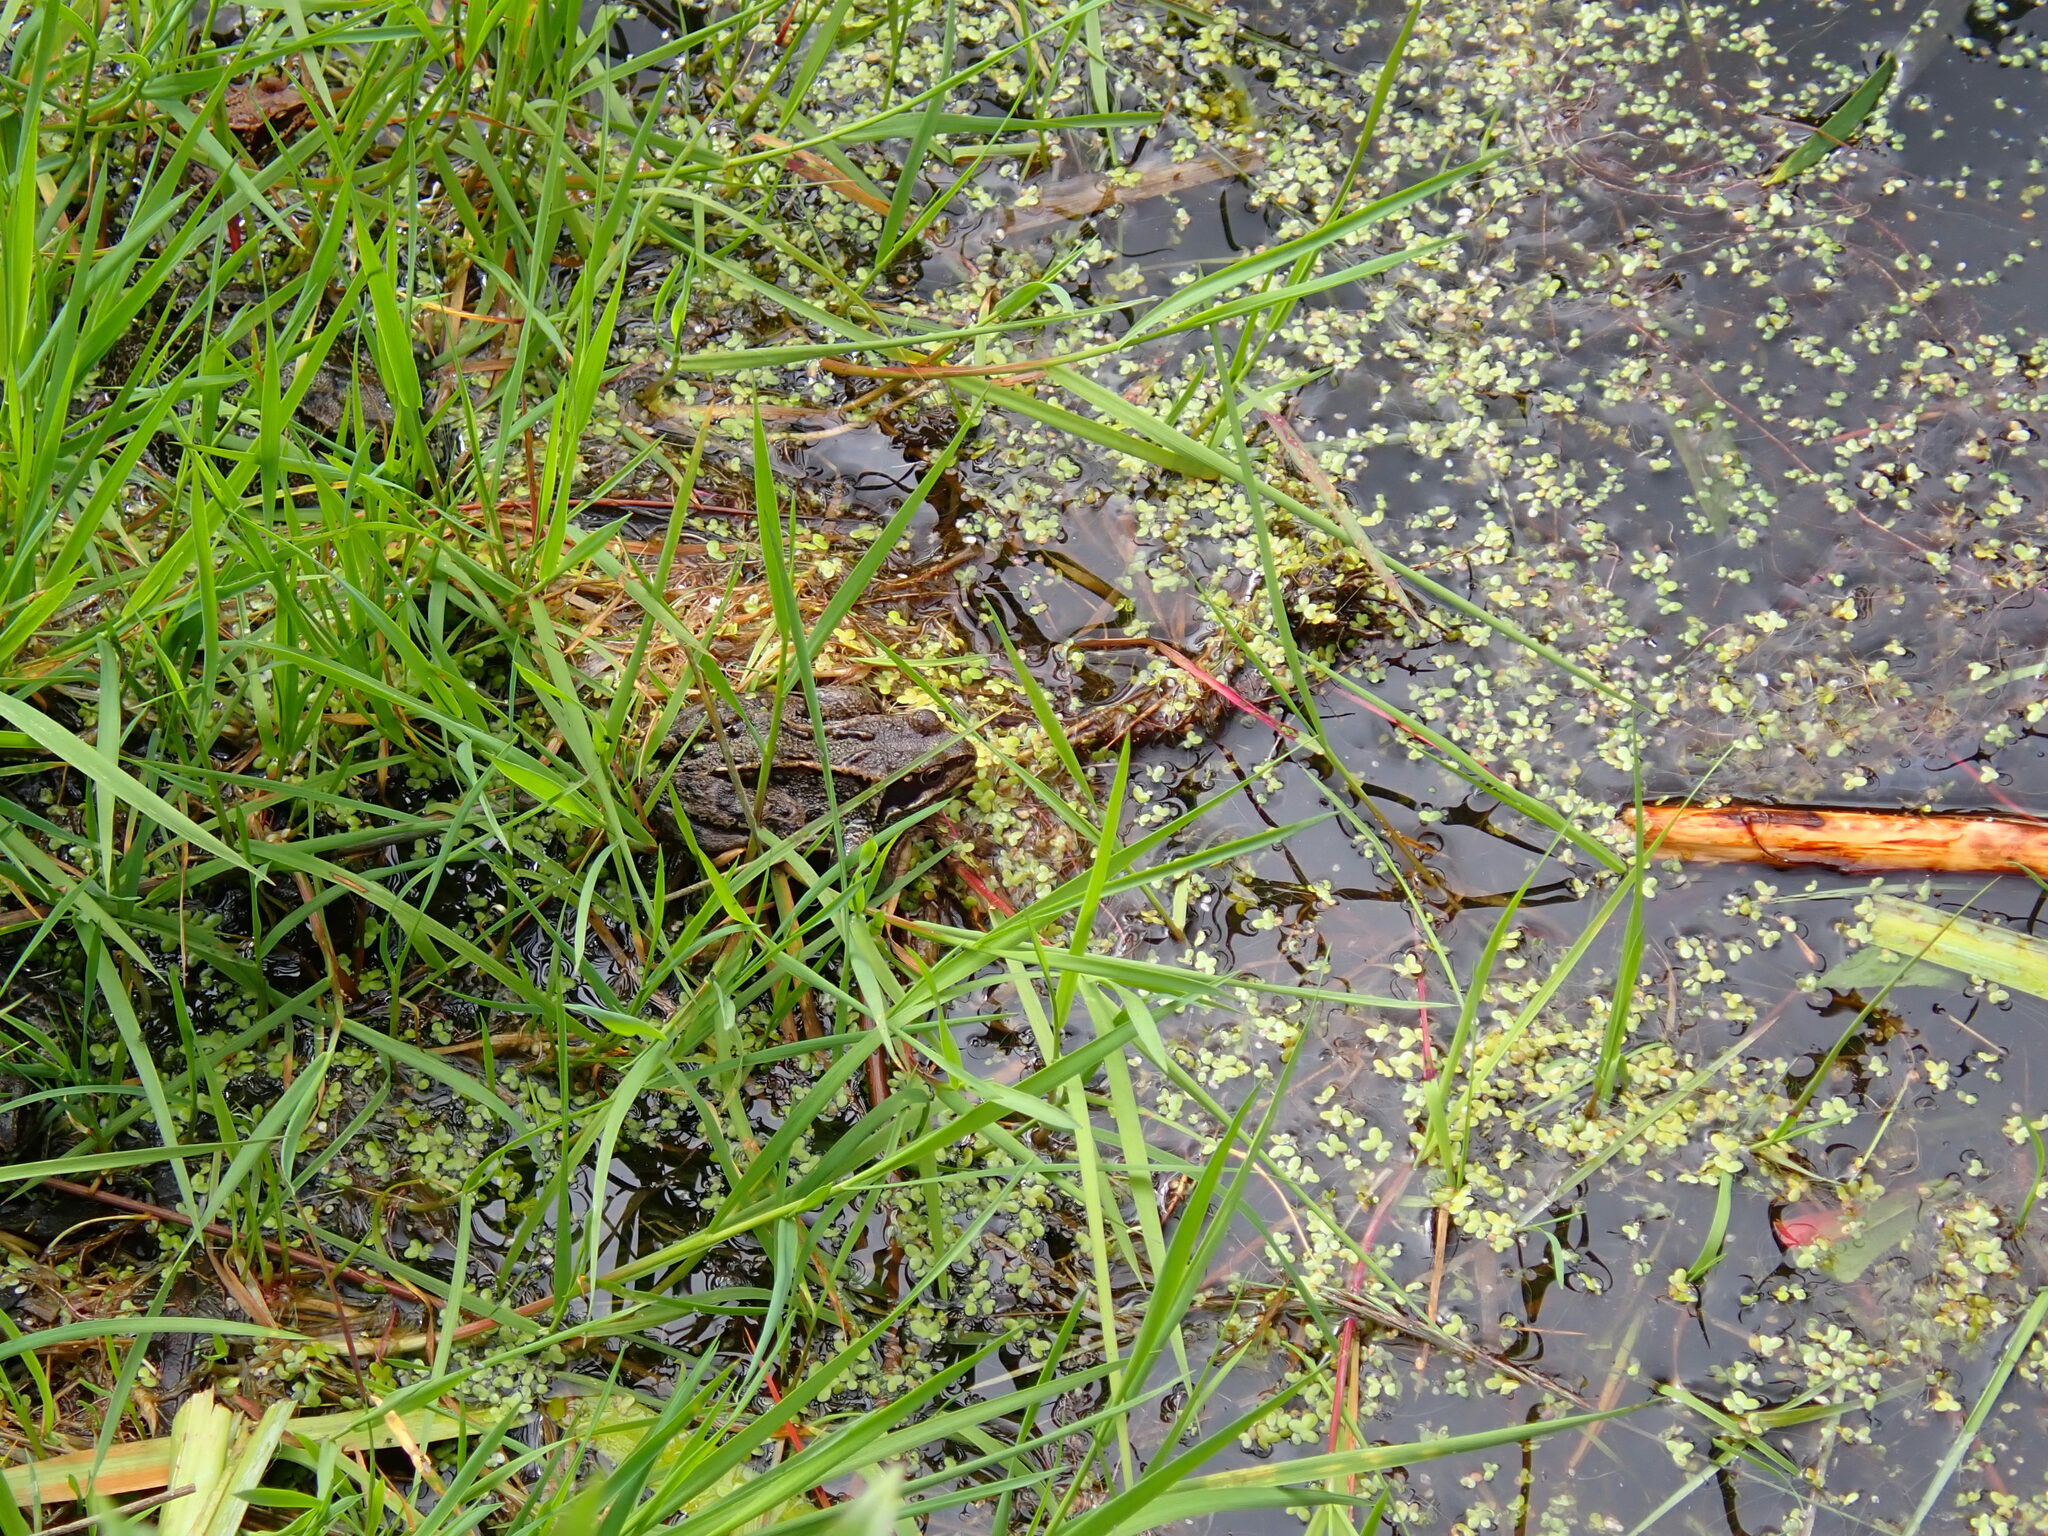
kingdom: Animalia
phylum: Chordata
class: Amphibia
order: Anura
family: Ranidae
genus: Rana
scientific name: Rana temporaria
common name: Common frog
